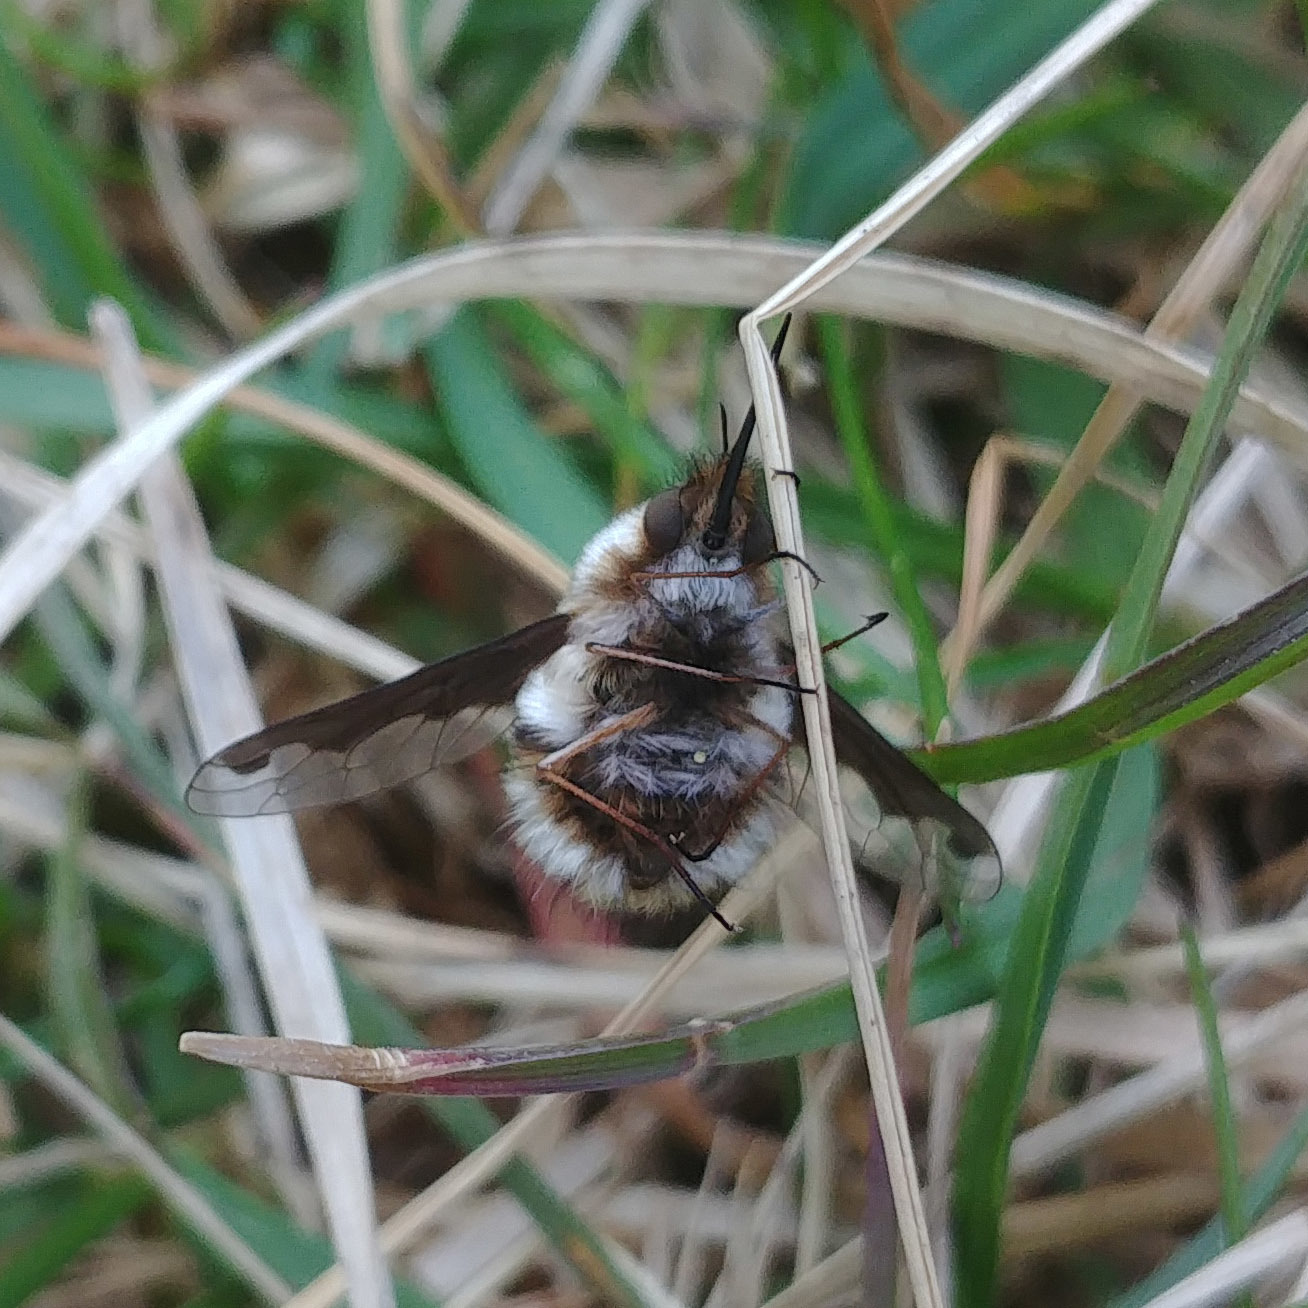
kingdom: Animalia
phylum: Arthropoda
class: Insecta
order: Diptera
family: Bombyliidae
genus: Bombylius
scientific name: Bombylius major
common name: Bee fly
